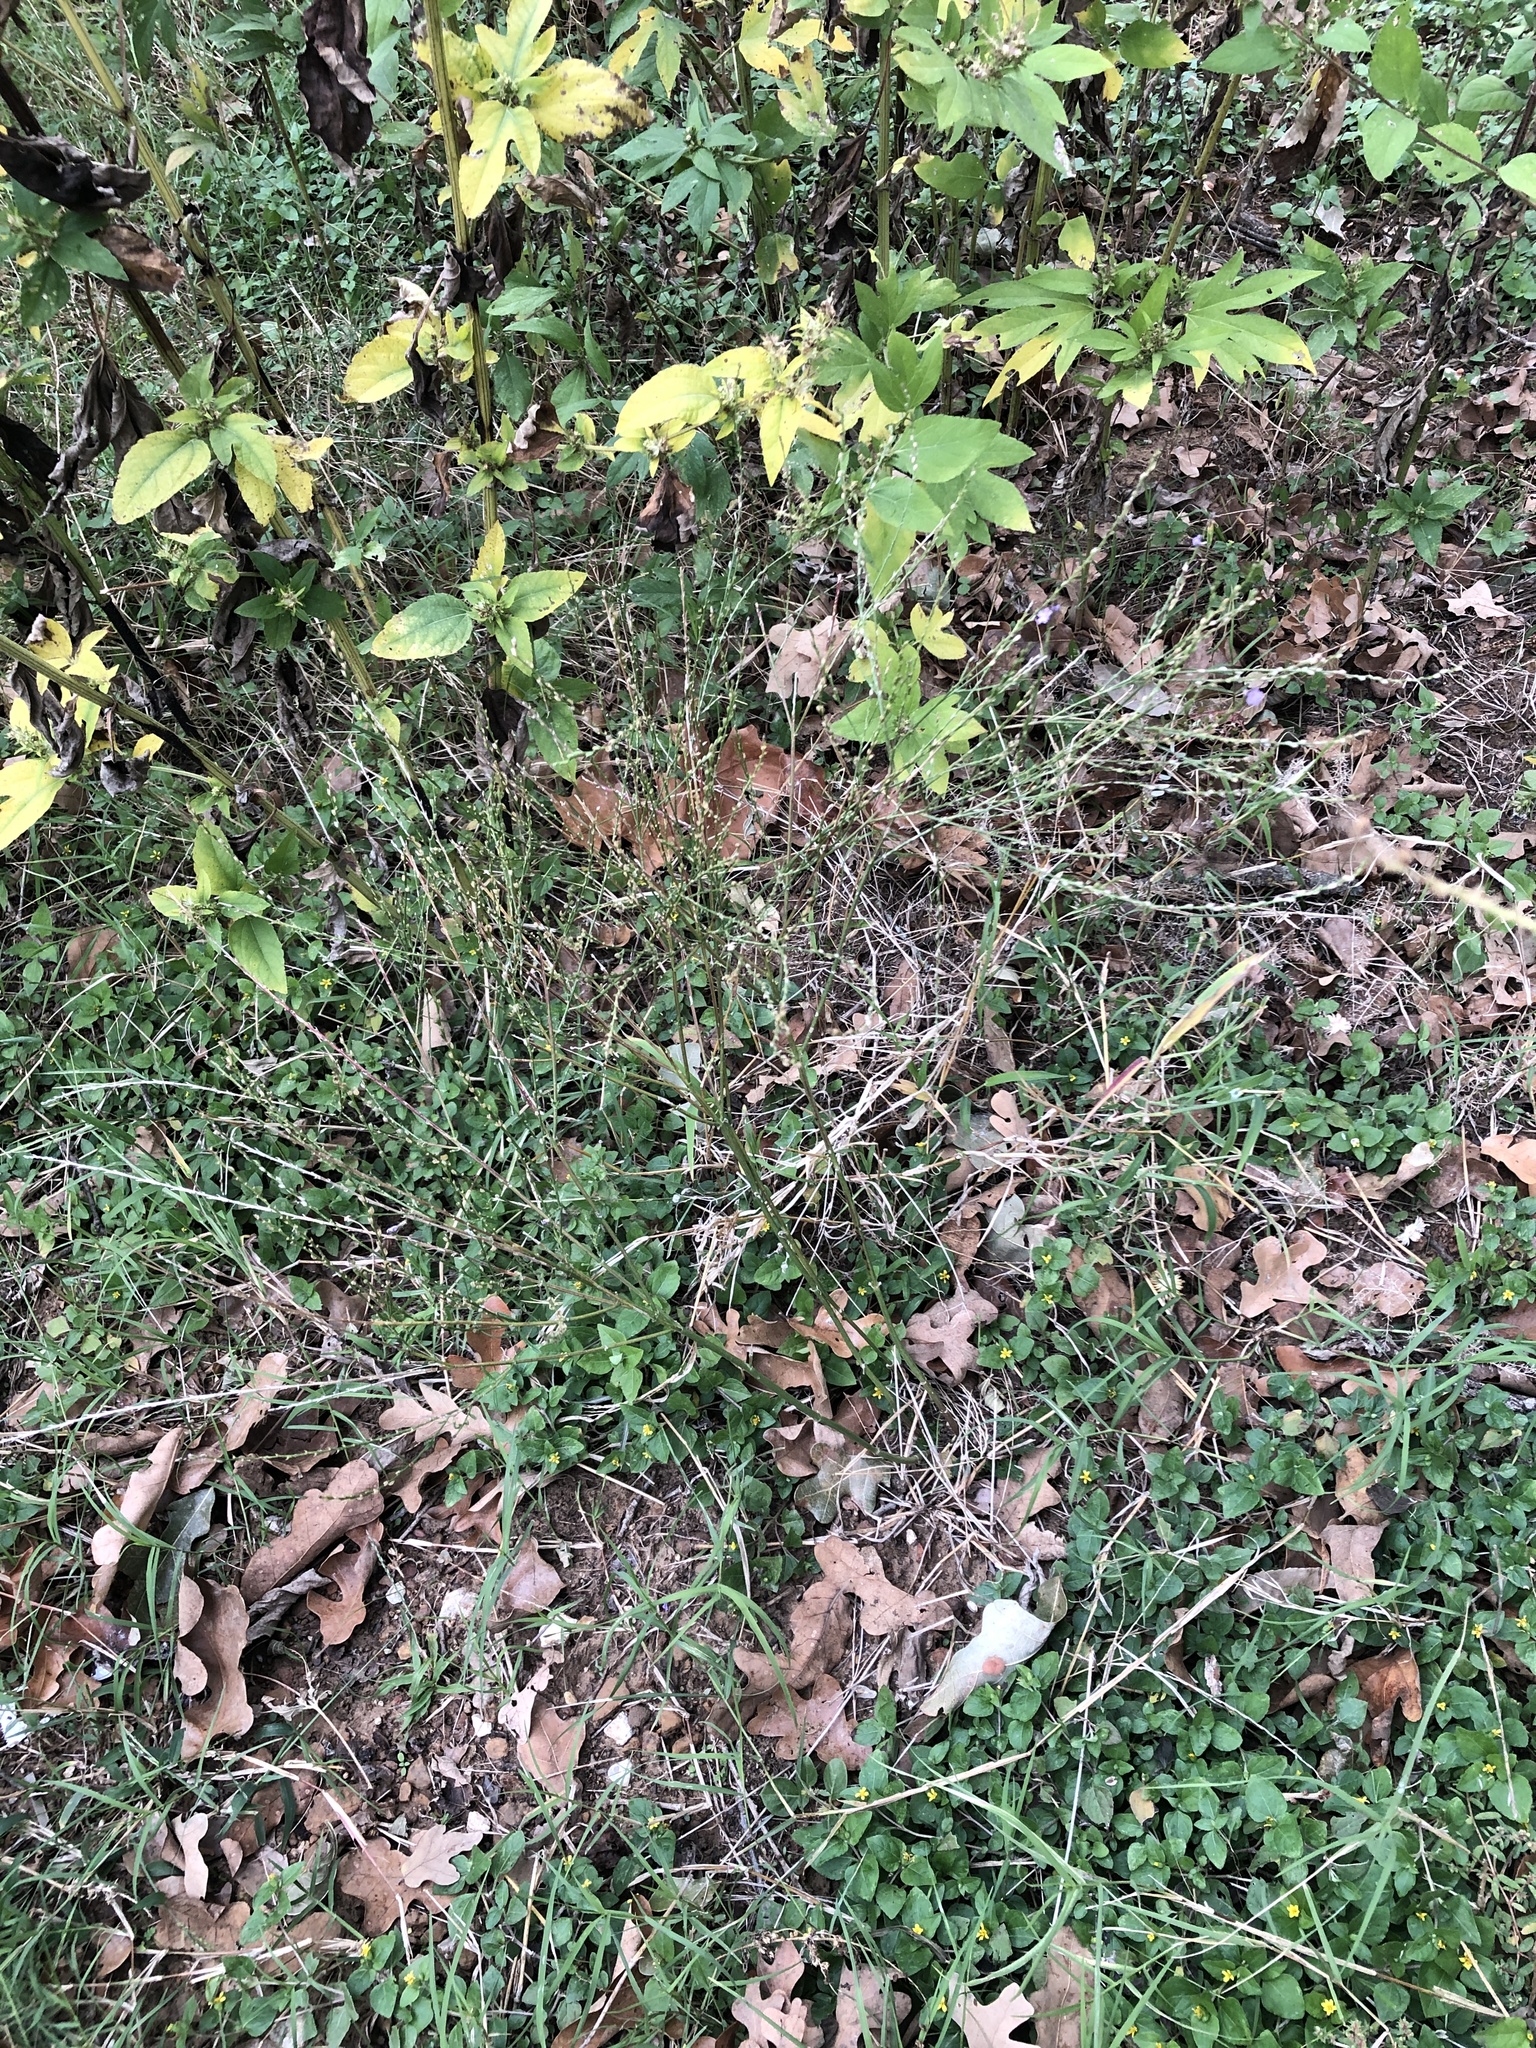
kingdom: Plantae
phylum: Tracheophyta
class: Magnoliopsida
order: Lamiales
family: Verbenaceae
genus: Verbena
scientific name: Verbena halei
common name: Texas vervain
